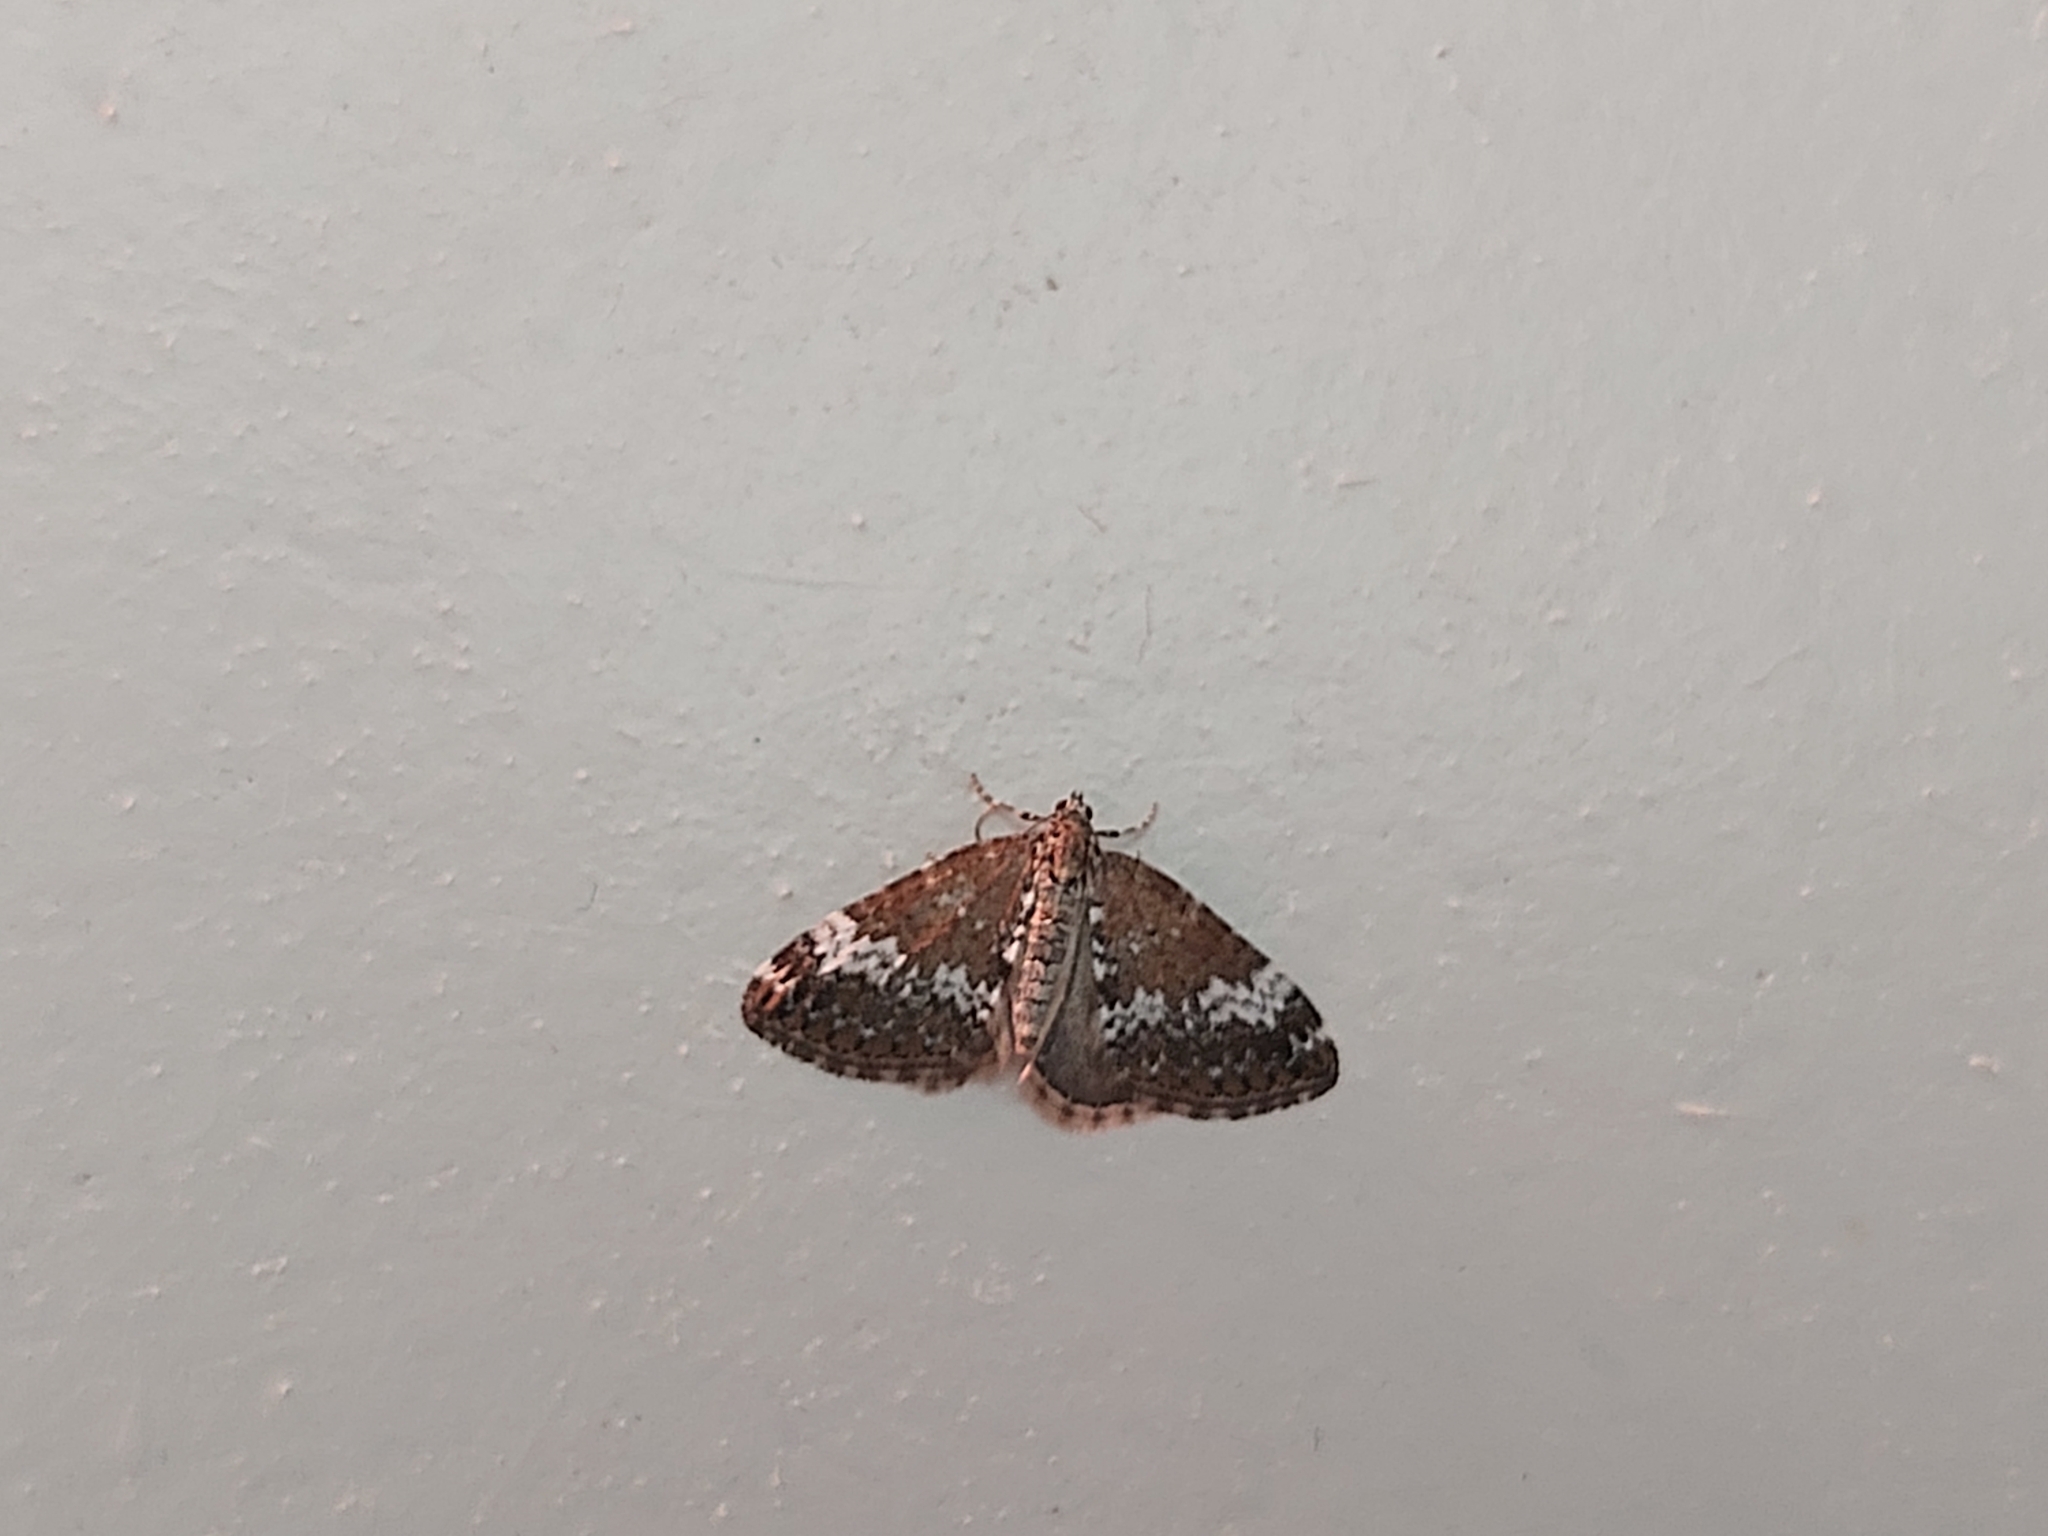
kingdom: Animalia
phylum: Arthropoda
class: Insecta
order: Lepidoptera
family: Geometridae
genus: Perizoma
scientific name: Perizoma alchemillata
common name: Small rivulet
